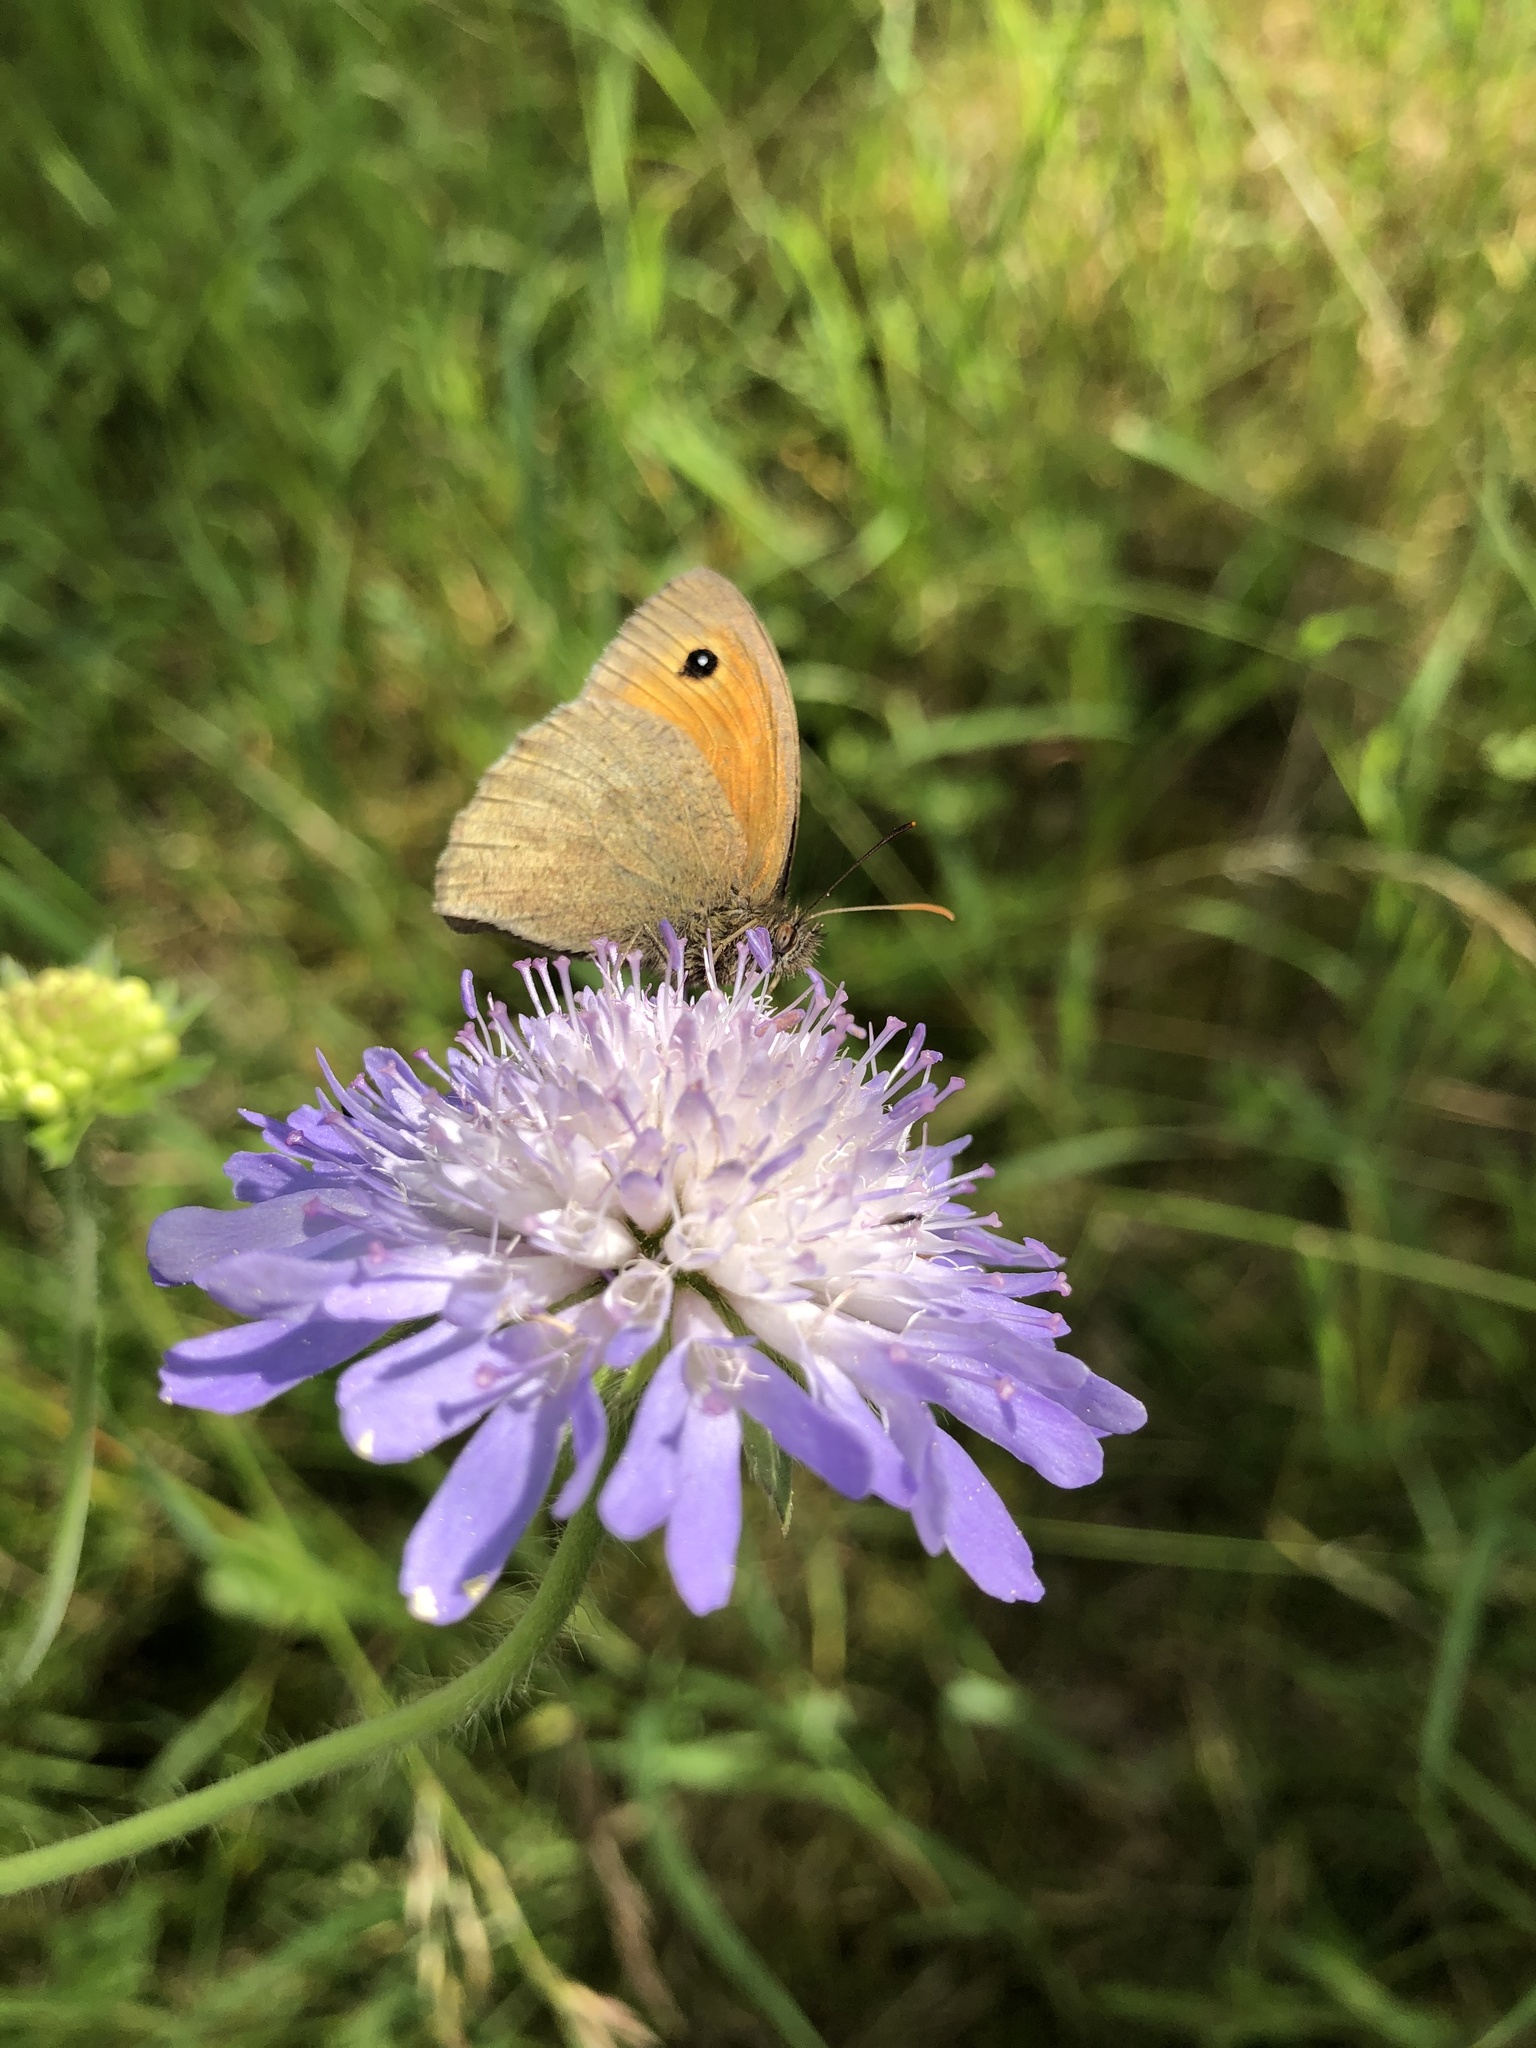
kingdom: Animalia
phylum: Arthropoda
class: Insecta
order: Lepidoptera
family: Nymphalidae
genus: Maniola
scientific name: Maniola jurtina
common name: Meadow brown
